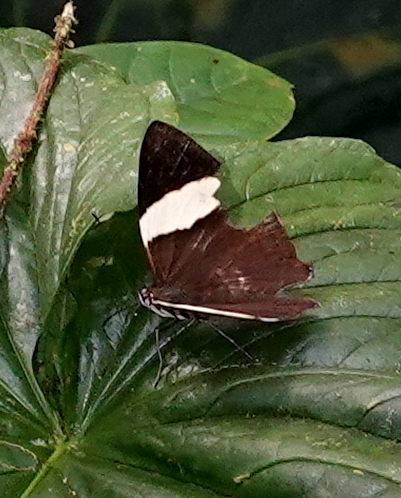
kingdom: Animalia
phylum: Arthropoda
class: Insecta
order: Lepidoptera
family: Nymphalidae
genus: Colobura
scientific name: Colobura annulata
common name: New beauty
